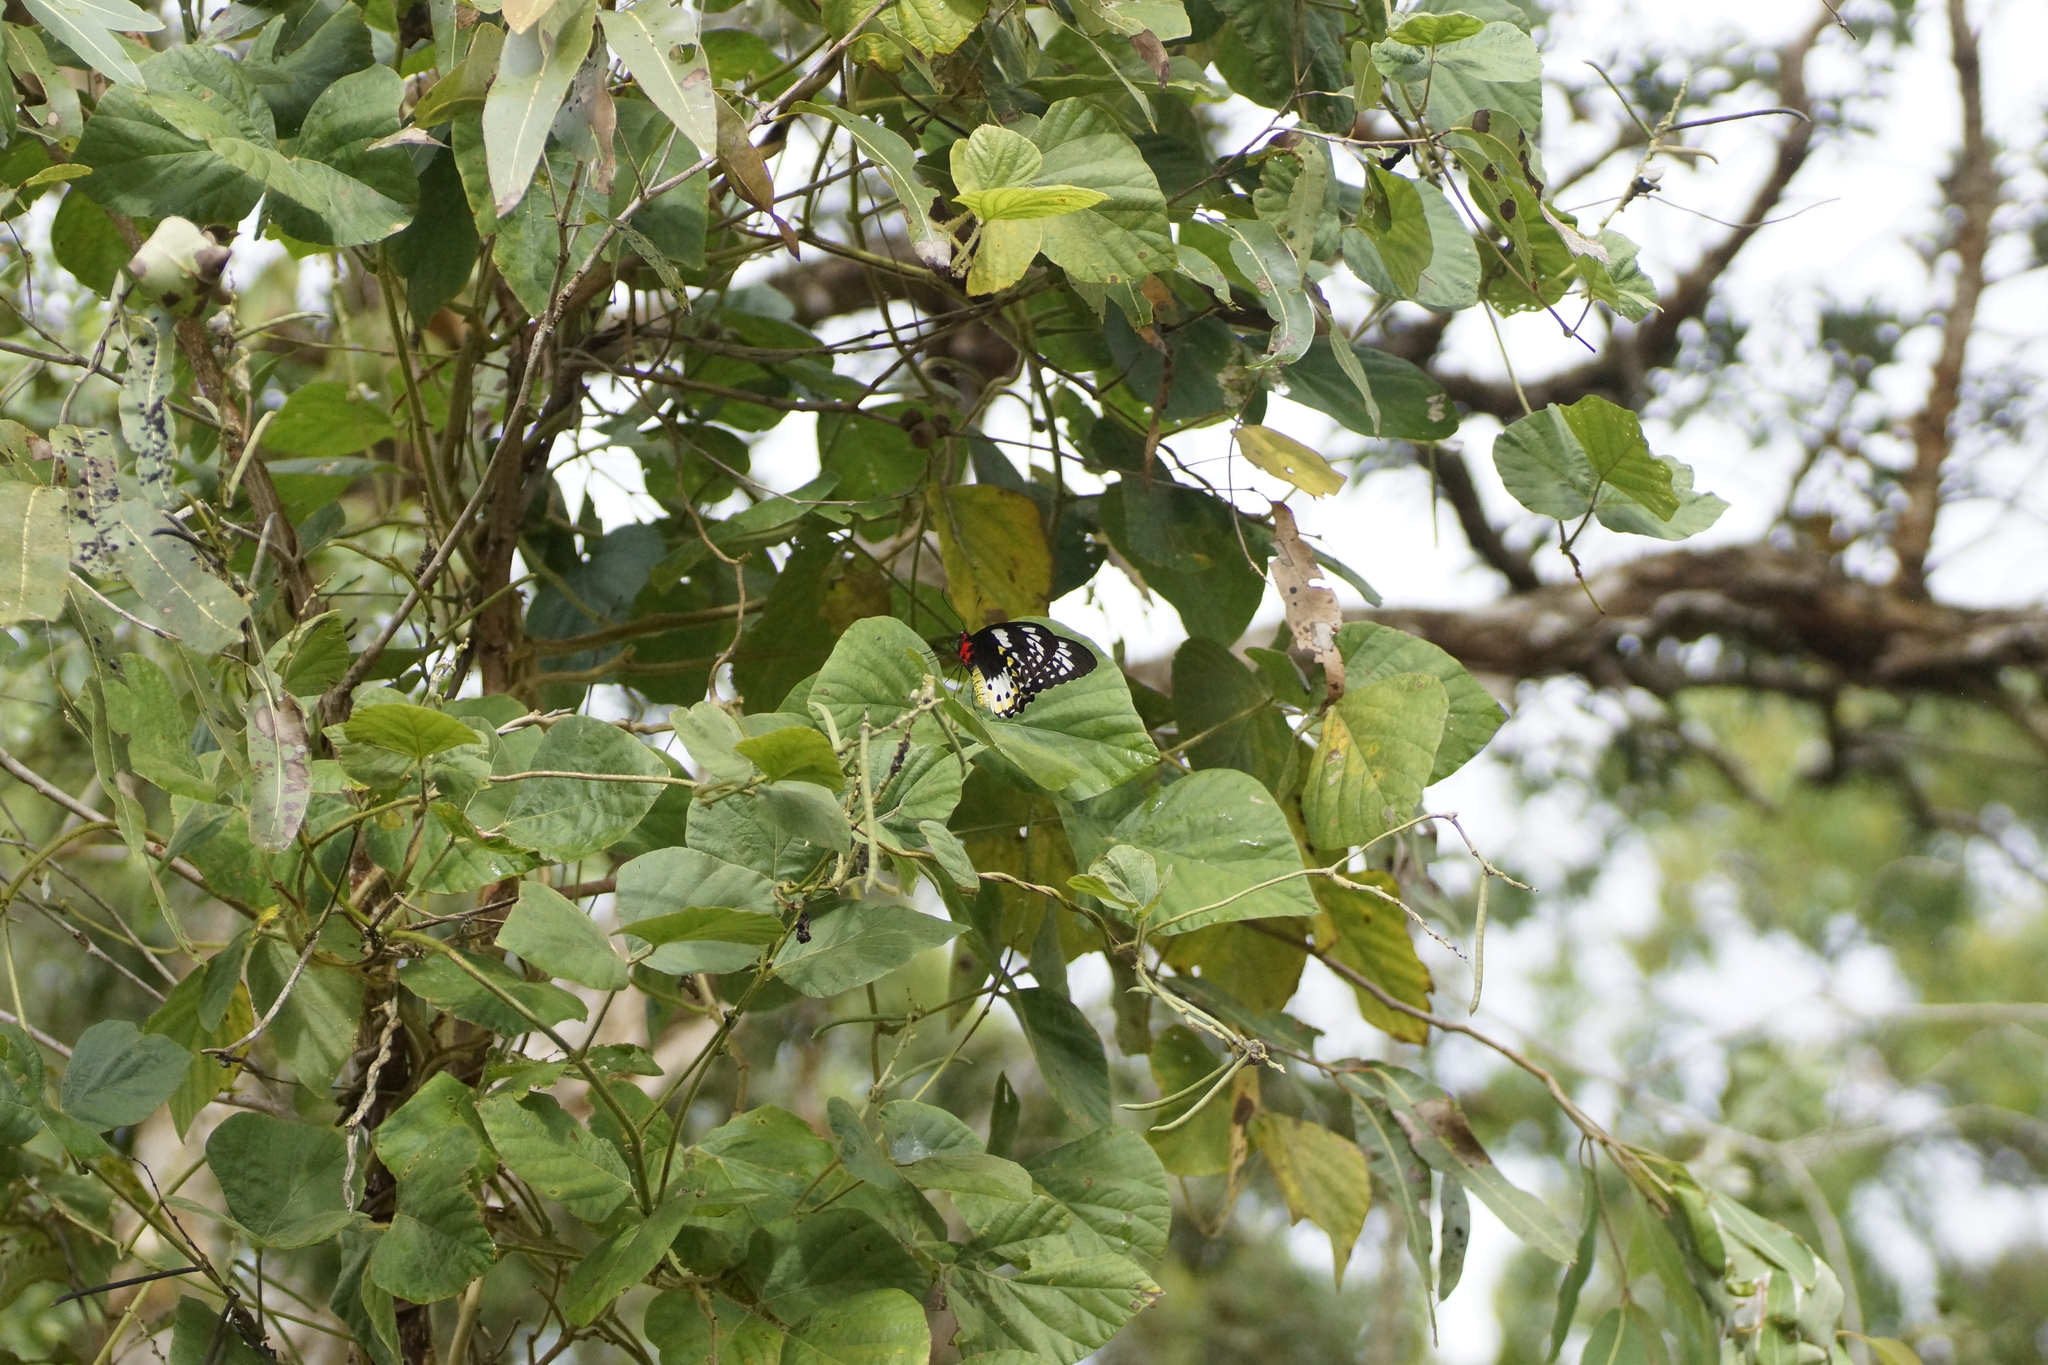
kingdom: Animalia
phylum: Arthropoda
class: Insecta
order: Lepidoptera
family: Papilionidae
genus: Ornithoptera
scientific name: Ornithoptera priamus
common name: Cape york birdwing
